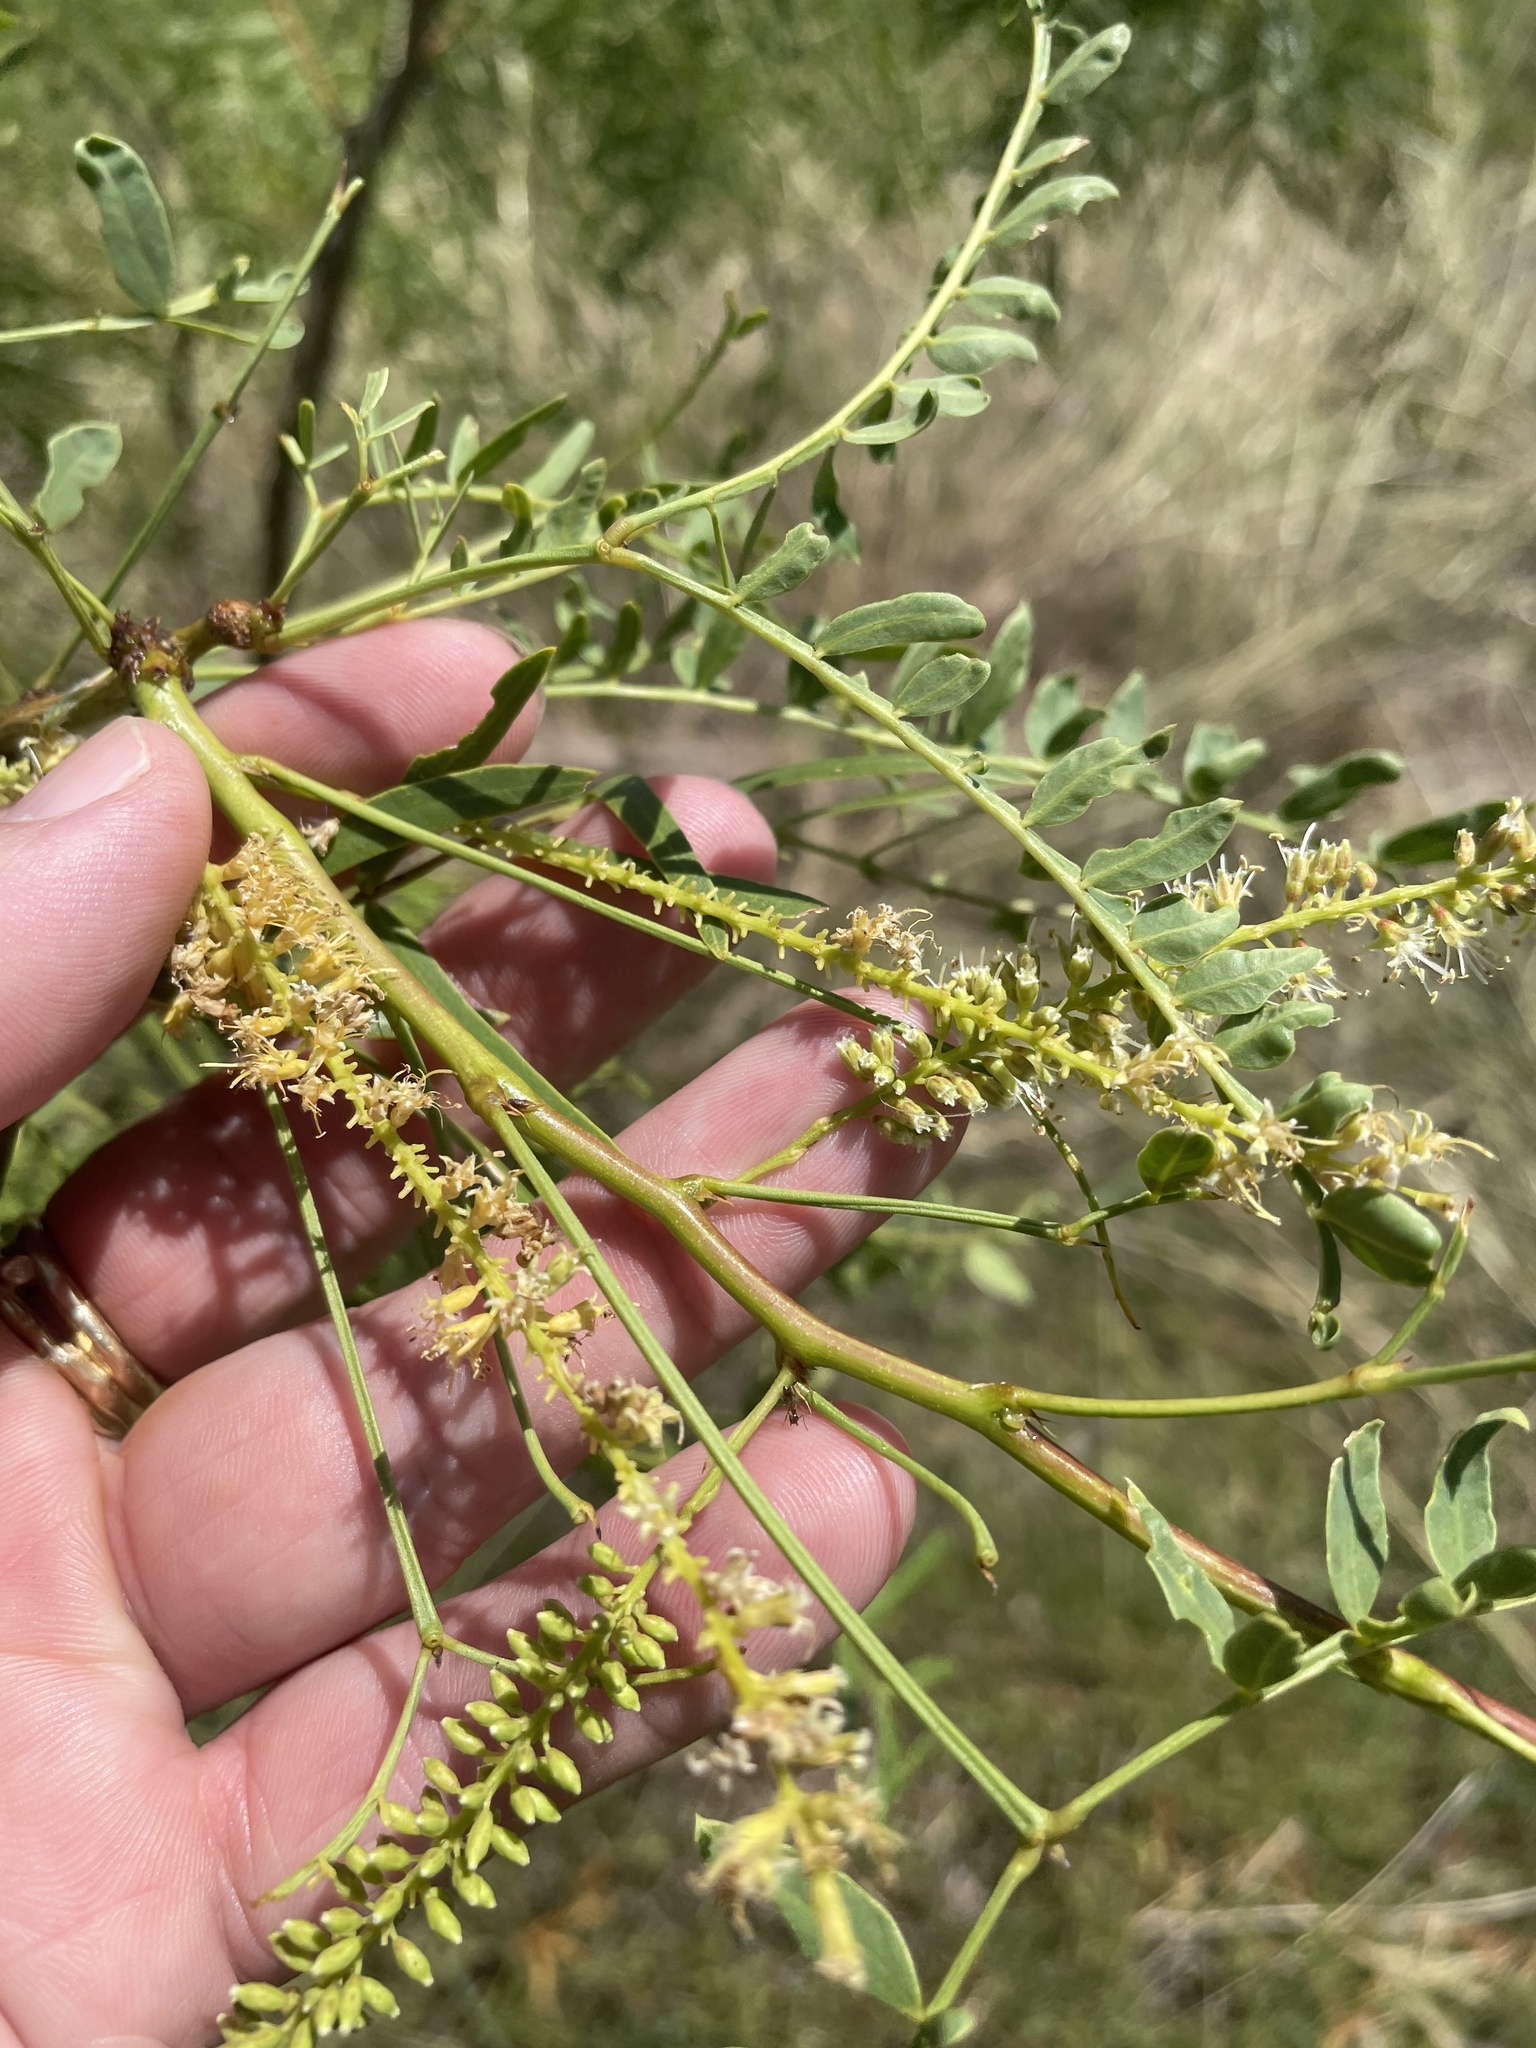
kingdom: Plantae
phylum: Tracheophyta
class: Magnoliopsida
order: Fabales
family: Fabaceae
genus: Prosopis
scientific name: Prosopis glandulosa
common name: Honey mesquite
